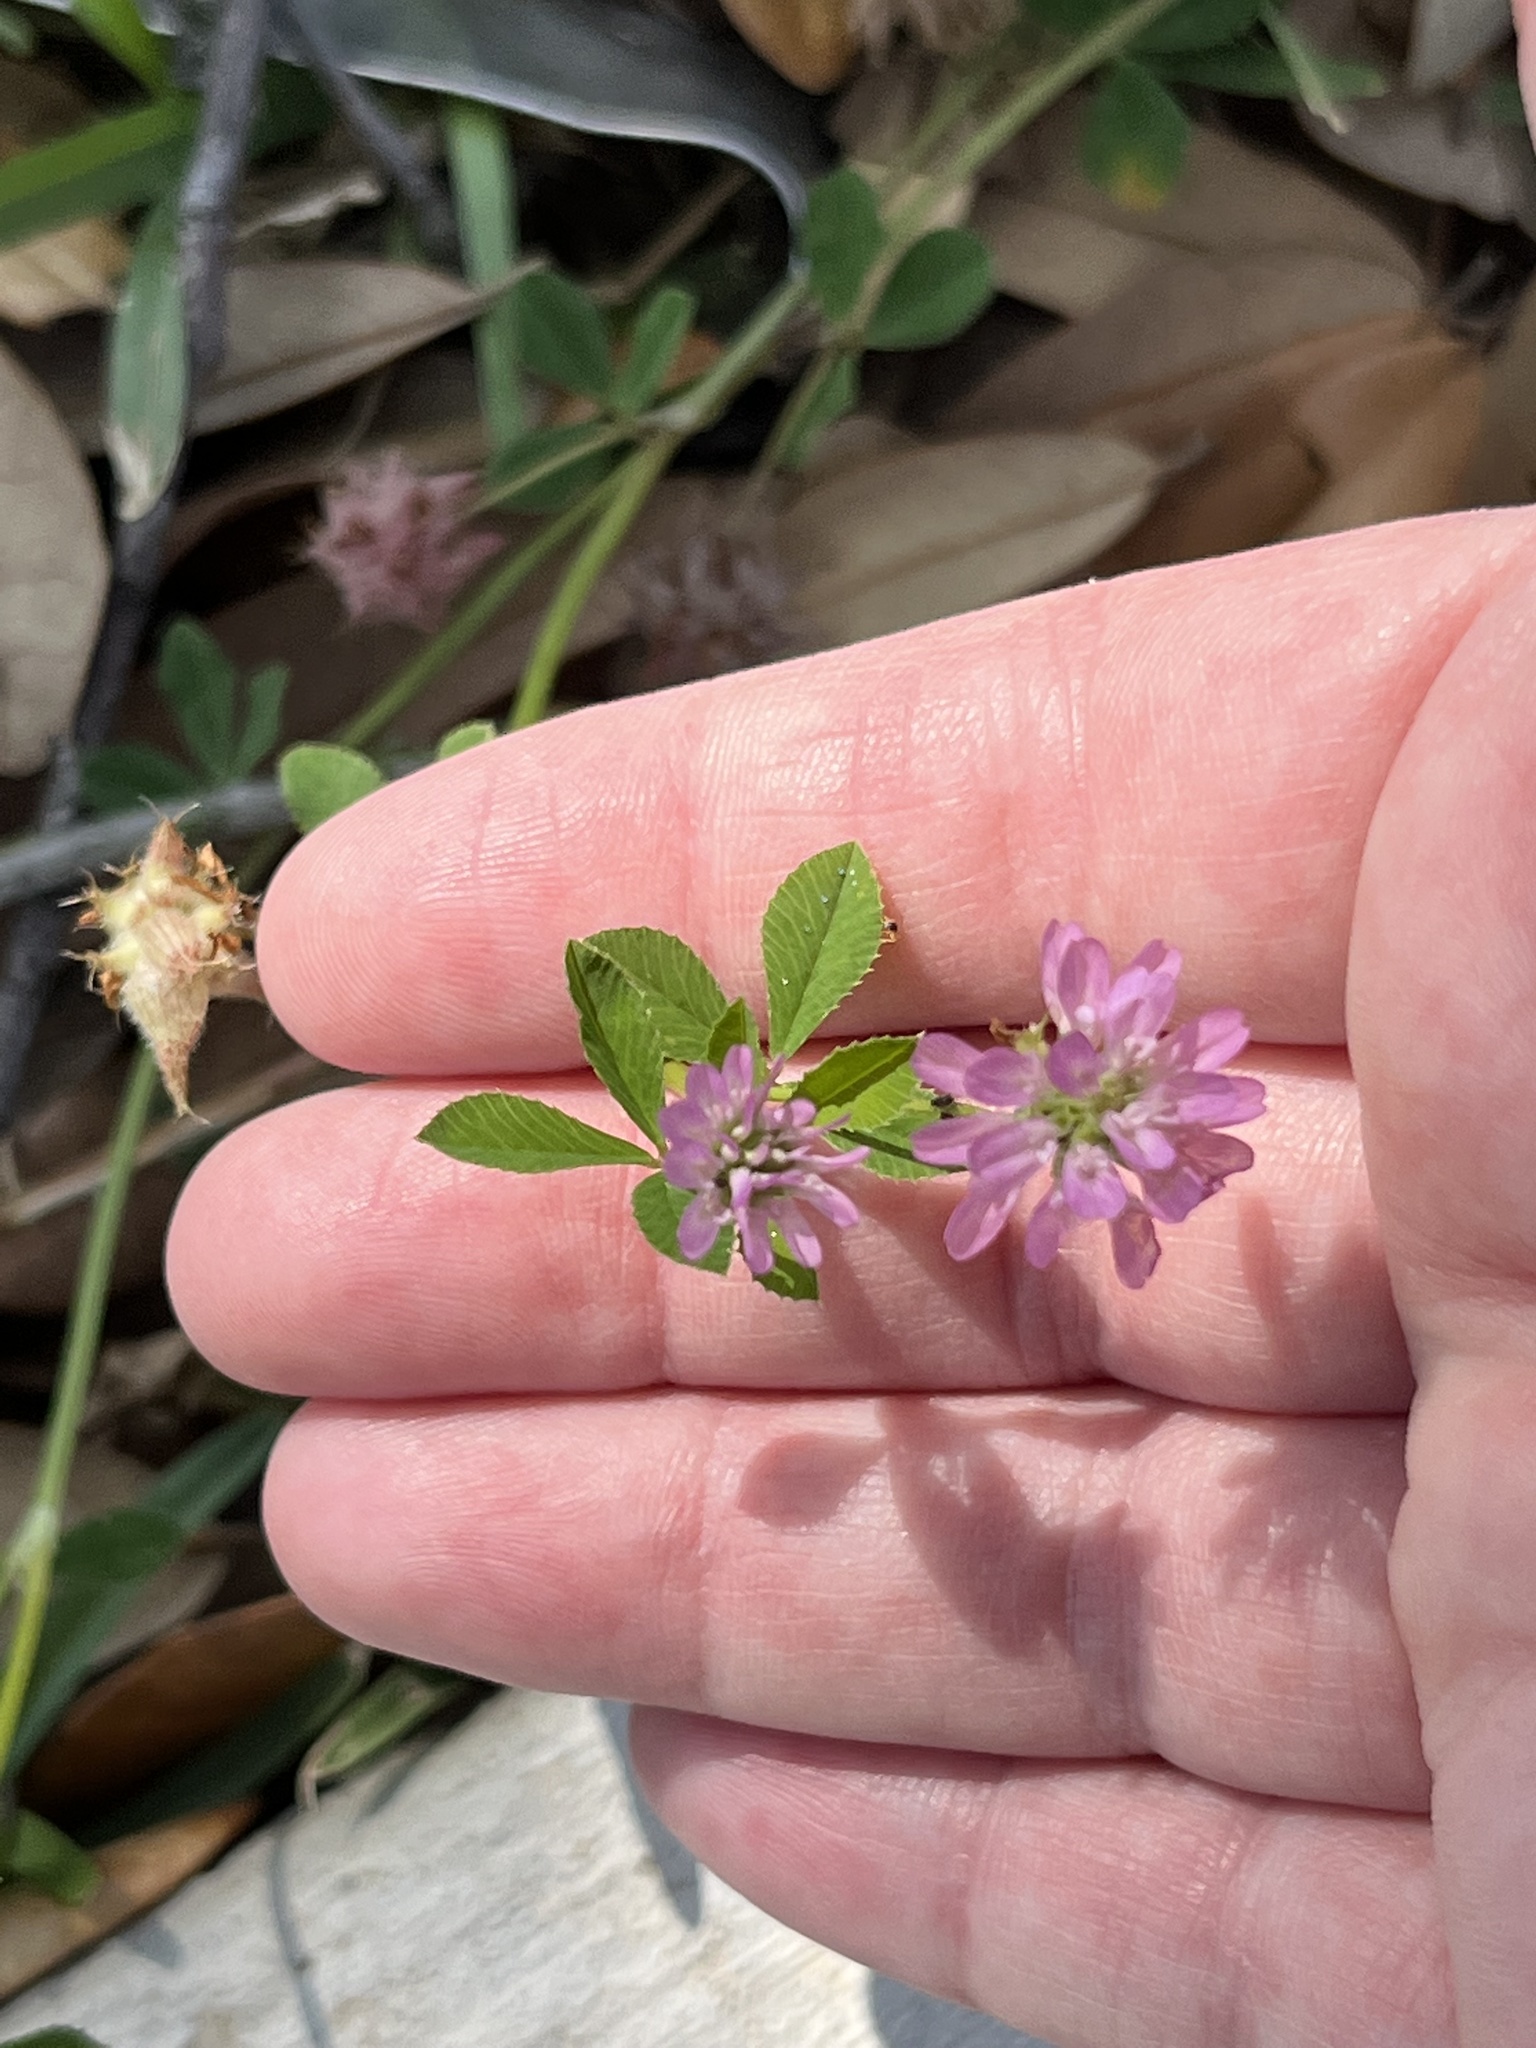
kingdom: Plantae
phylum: Tracheophyta
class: Magnoliopsida
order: Fabales
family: Fabaceae
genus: Trifolium
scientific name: Trifolium resupinatum
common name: Reversed clover
